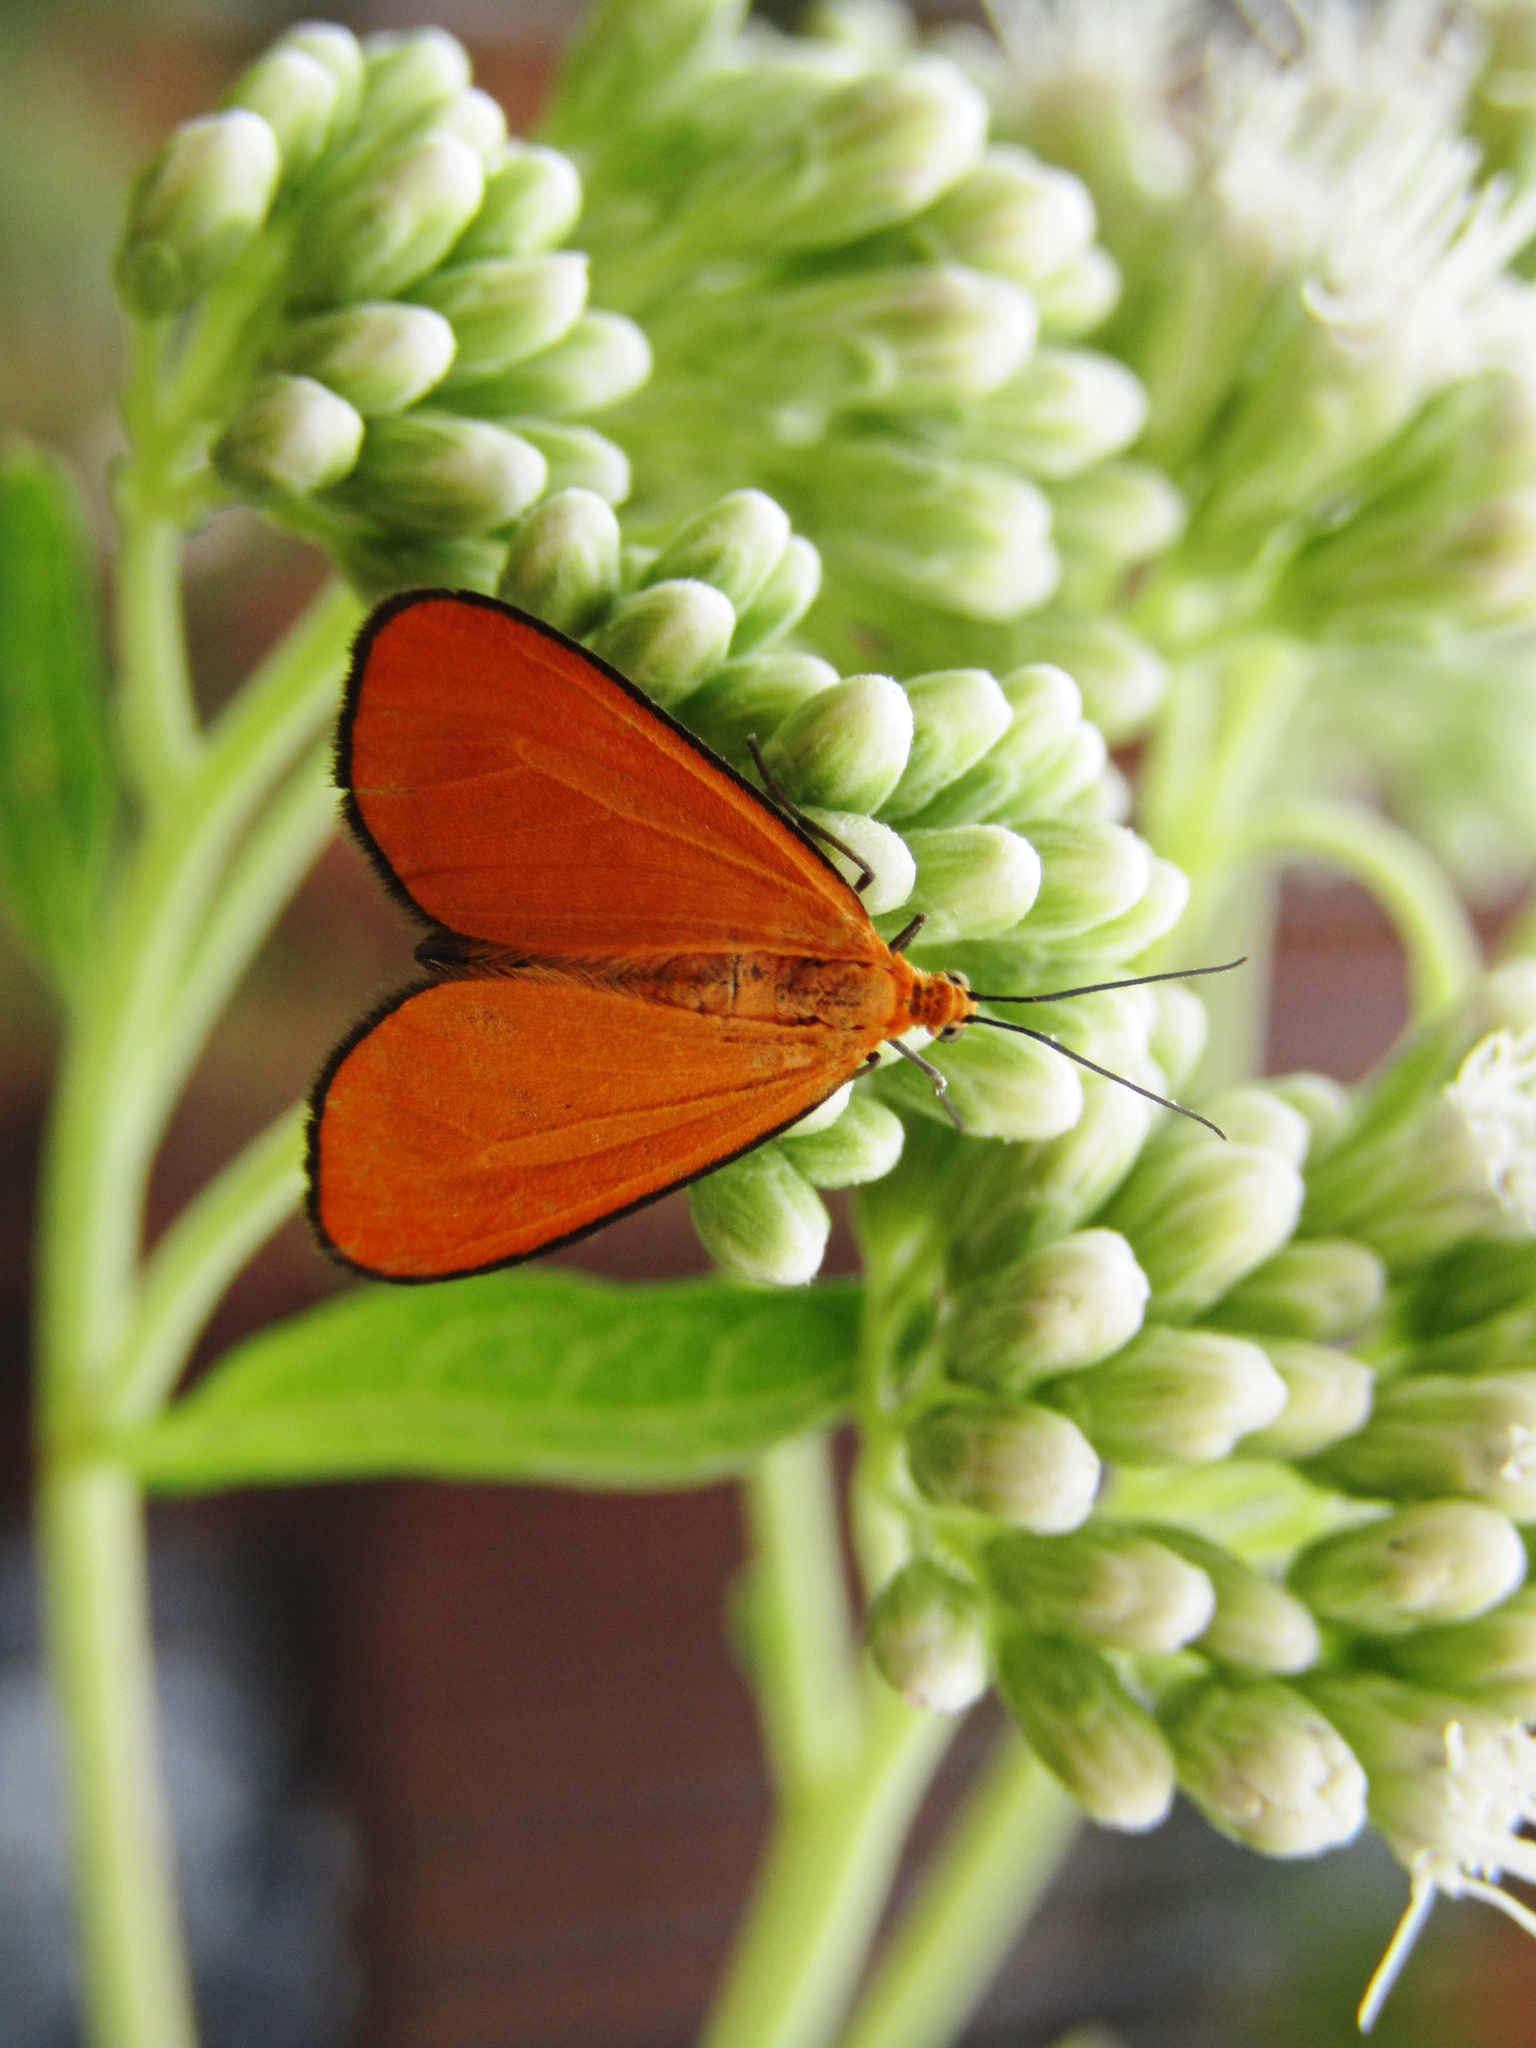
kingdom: Animalia
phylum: Arthropoda
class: Insecta
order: Lepidoptera
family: Geometridae
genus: Eudulophasia
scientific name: Eudulophasia invaria
